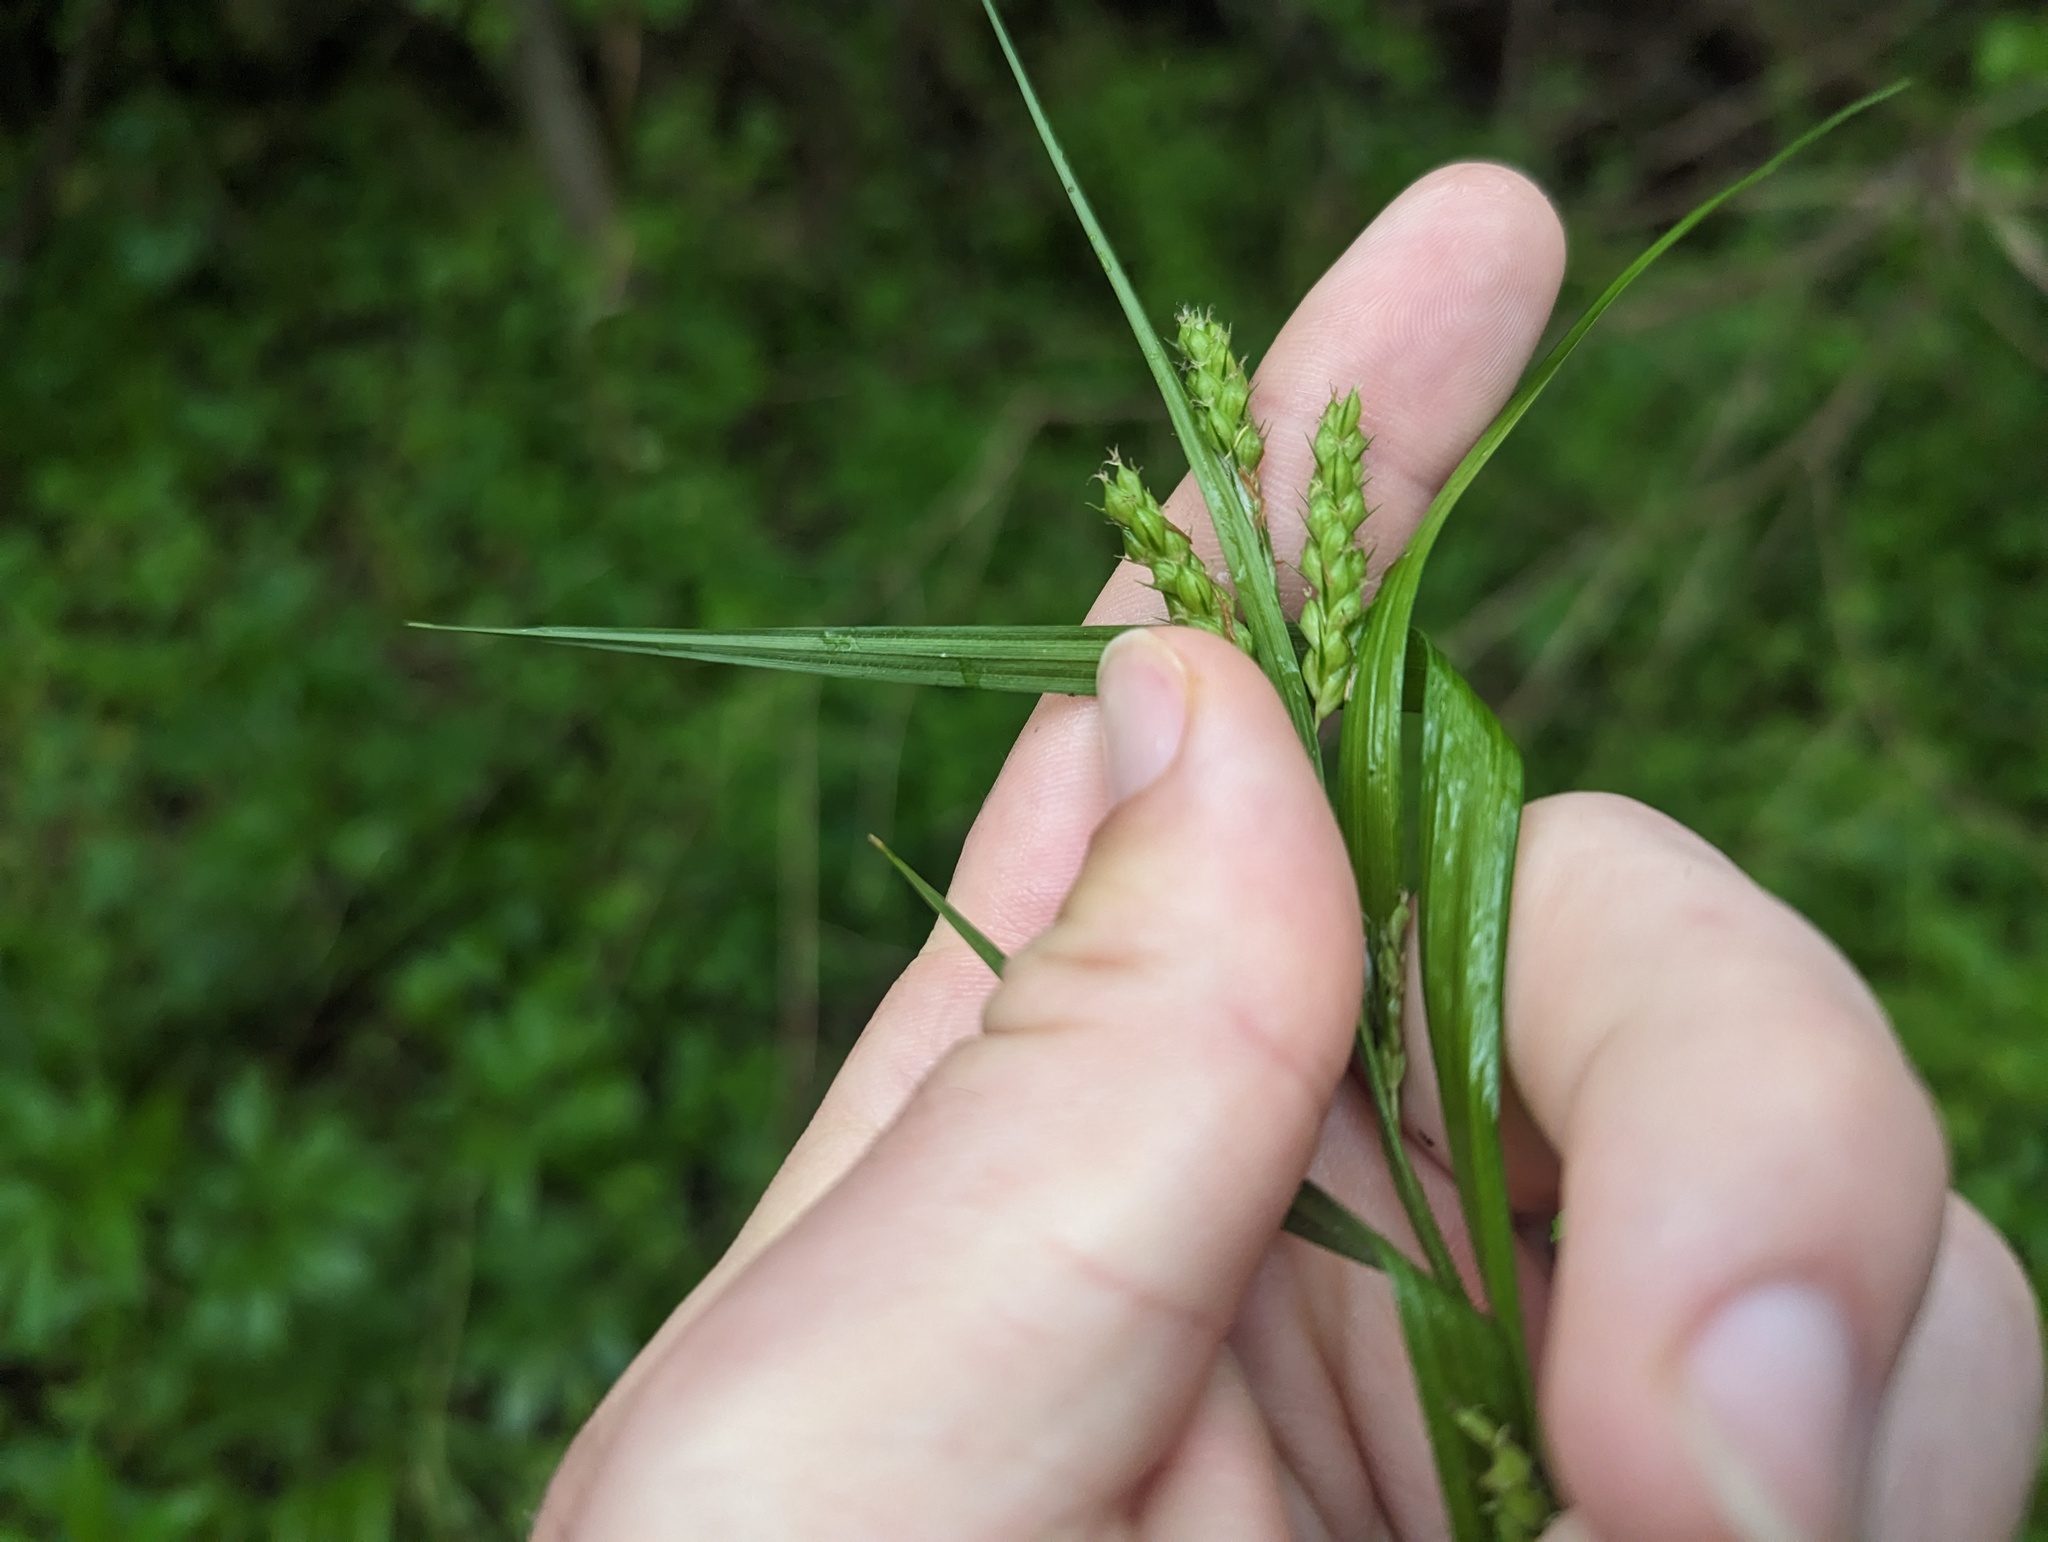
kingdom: Plantae
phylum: Tracheophyta
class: Liliopsida
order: Poales
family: Cyperaceae
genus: Carex
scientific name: Carex davisii
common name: Davis' sedge
